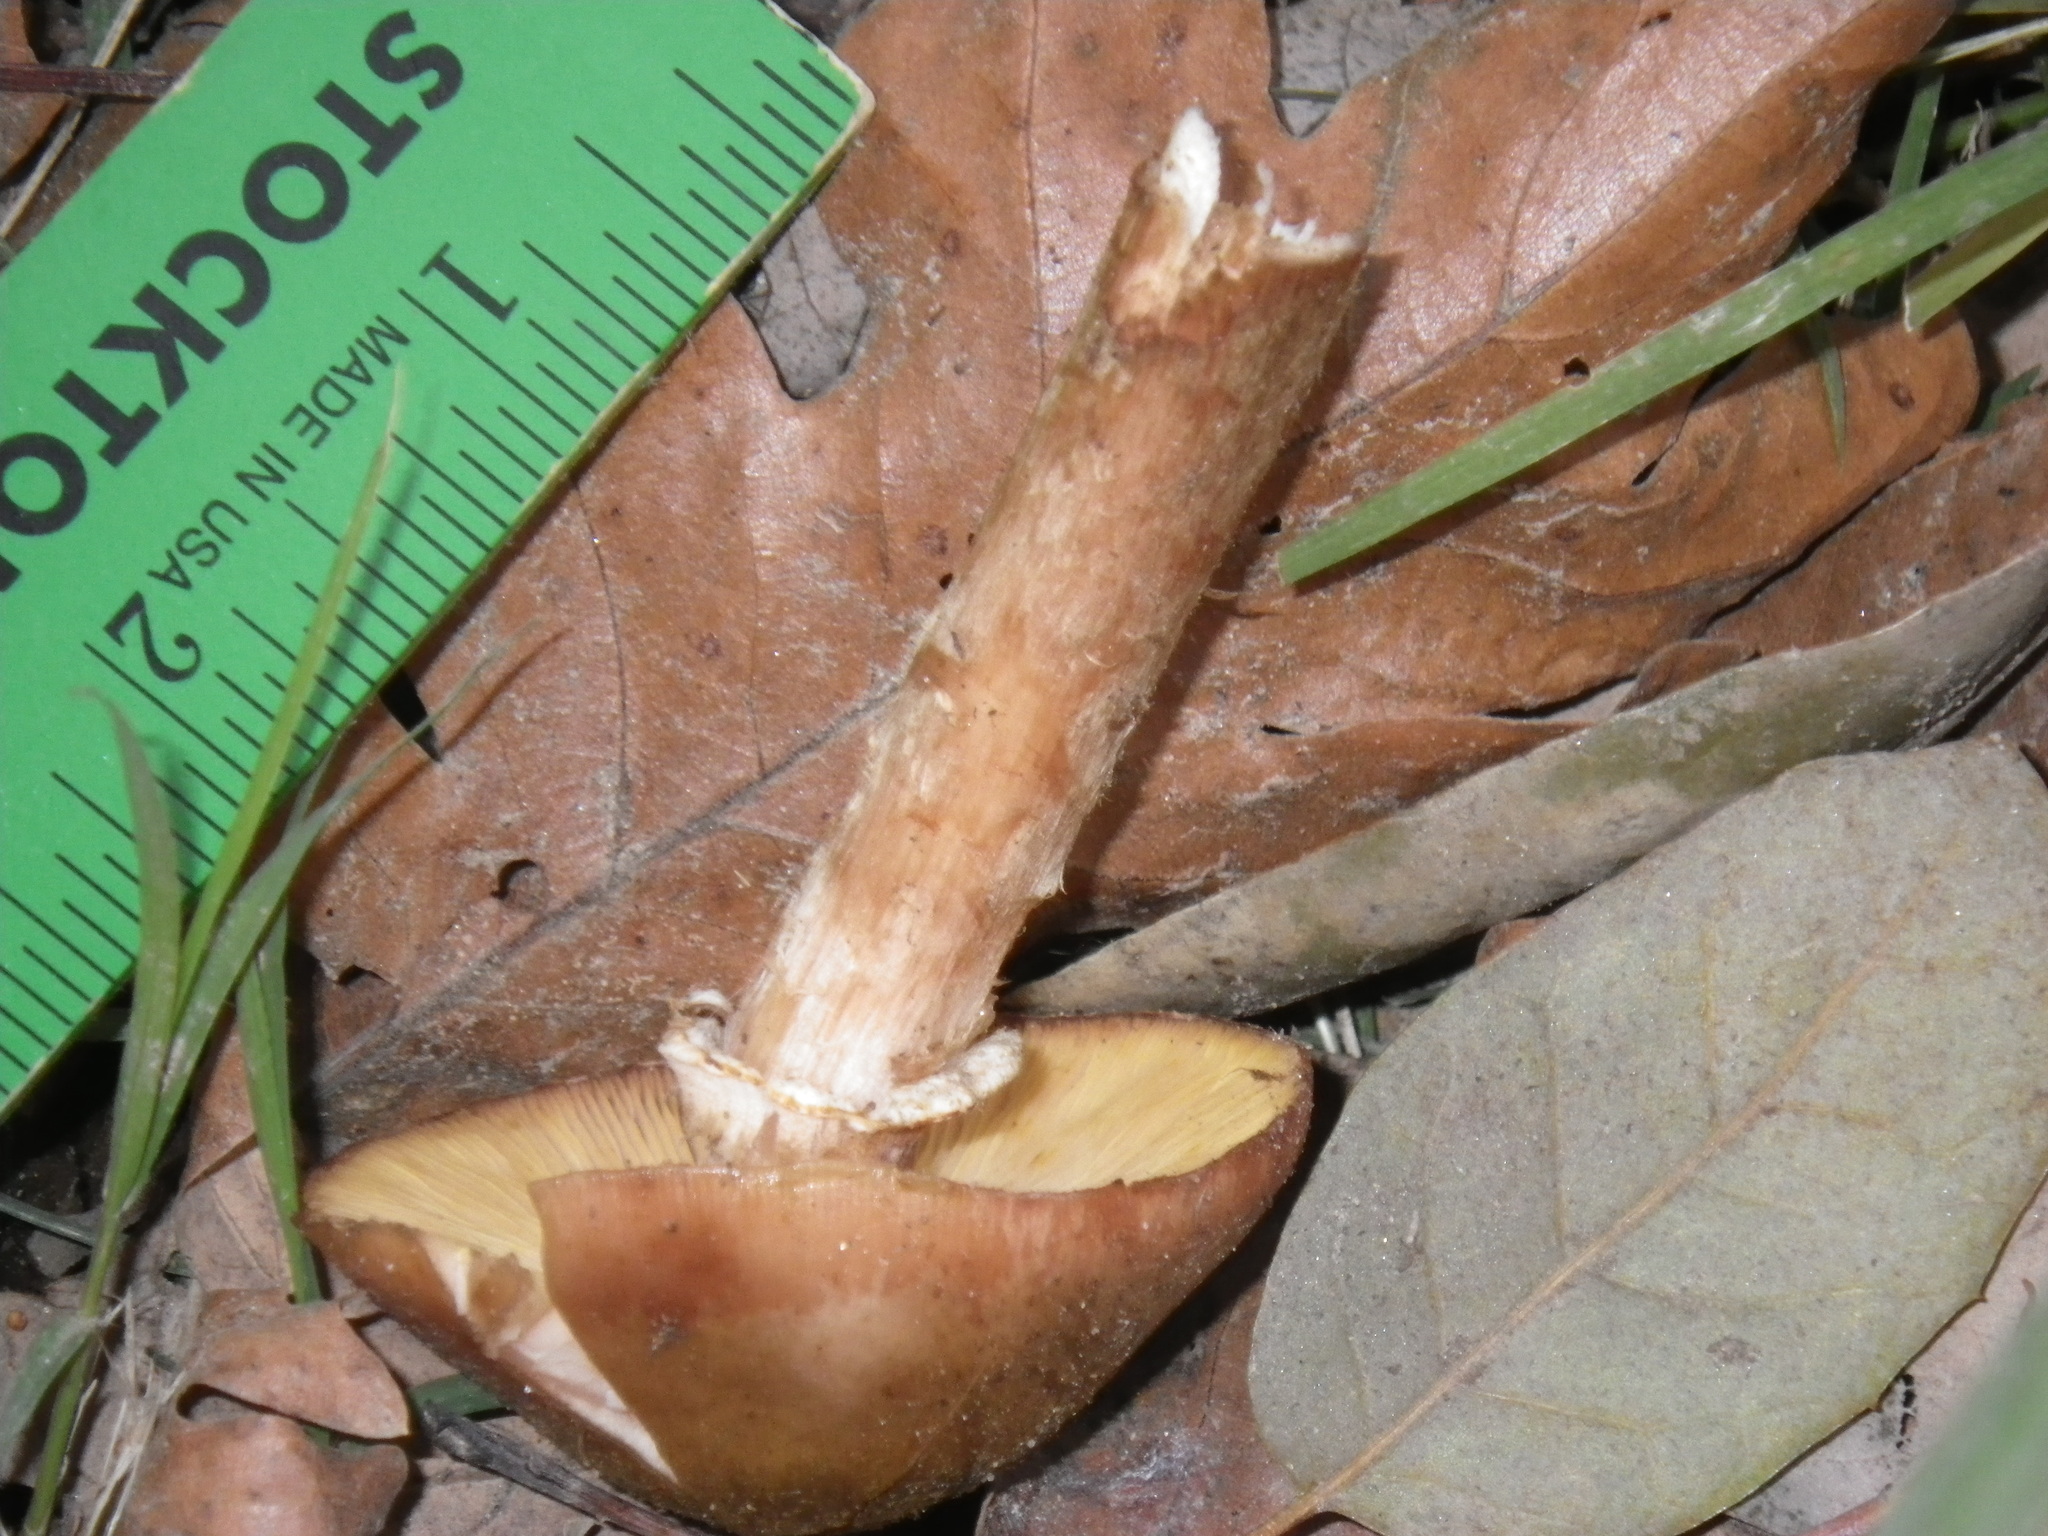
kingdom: Fungi
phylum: Basidiomycota
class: Agaricomycetes
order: Agaricales
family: Physalacriaceae
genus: Armillaria
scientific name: Armillaria mellea
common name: Honey fungus
